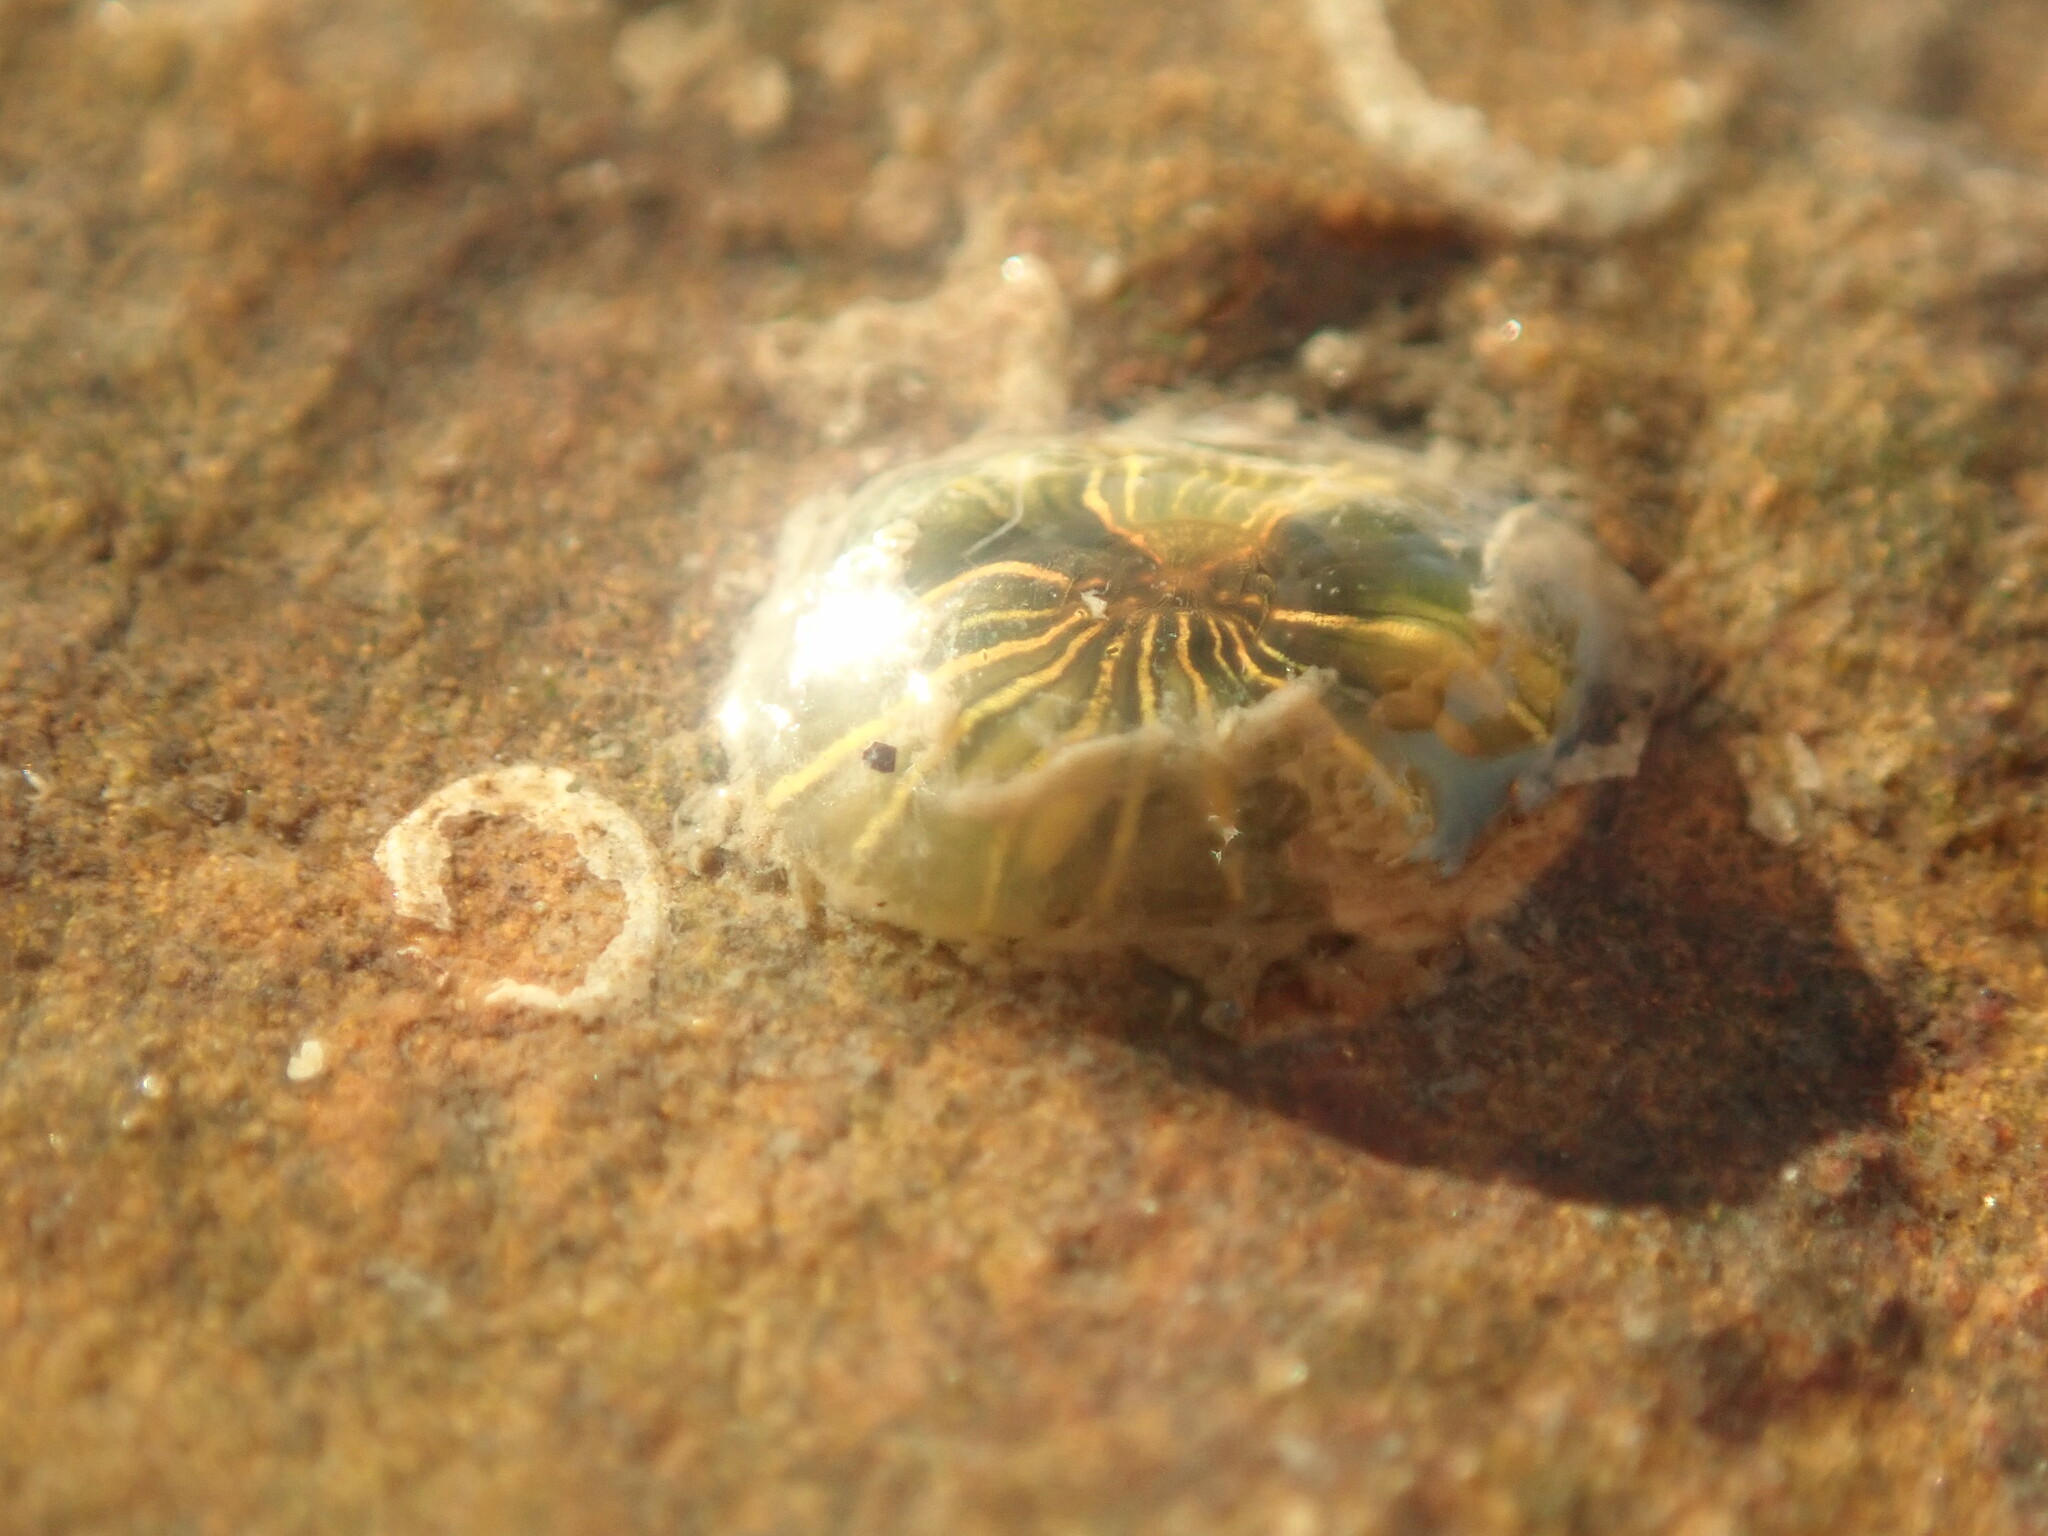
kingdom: Animalia
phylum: Cnidaria
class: Anthozoa
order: Actiniaria
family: Diadumenidae
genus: Diadumene
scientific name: Diadumene lineata
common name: Orange-striped anemone
